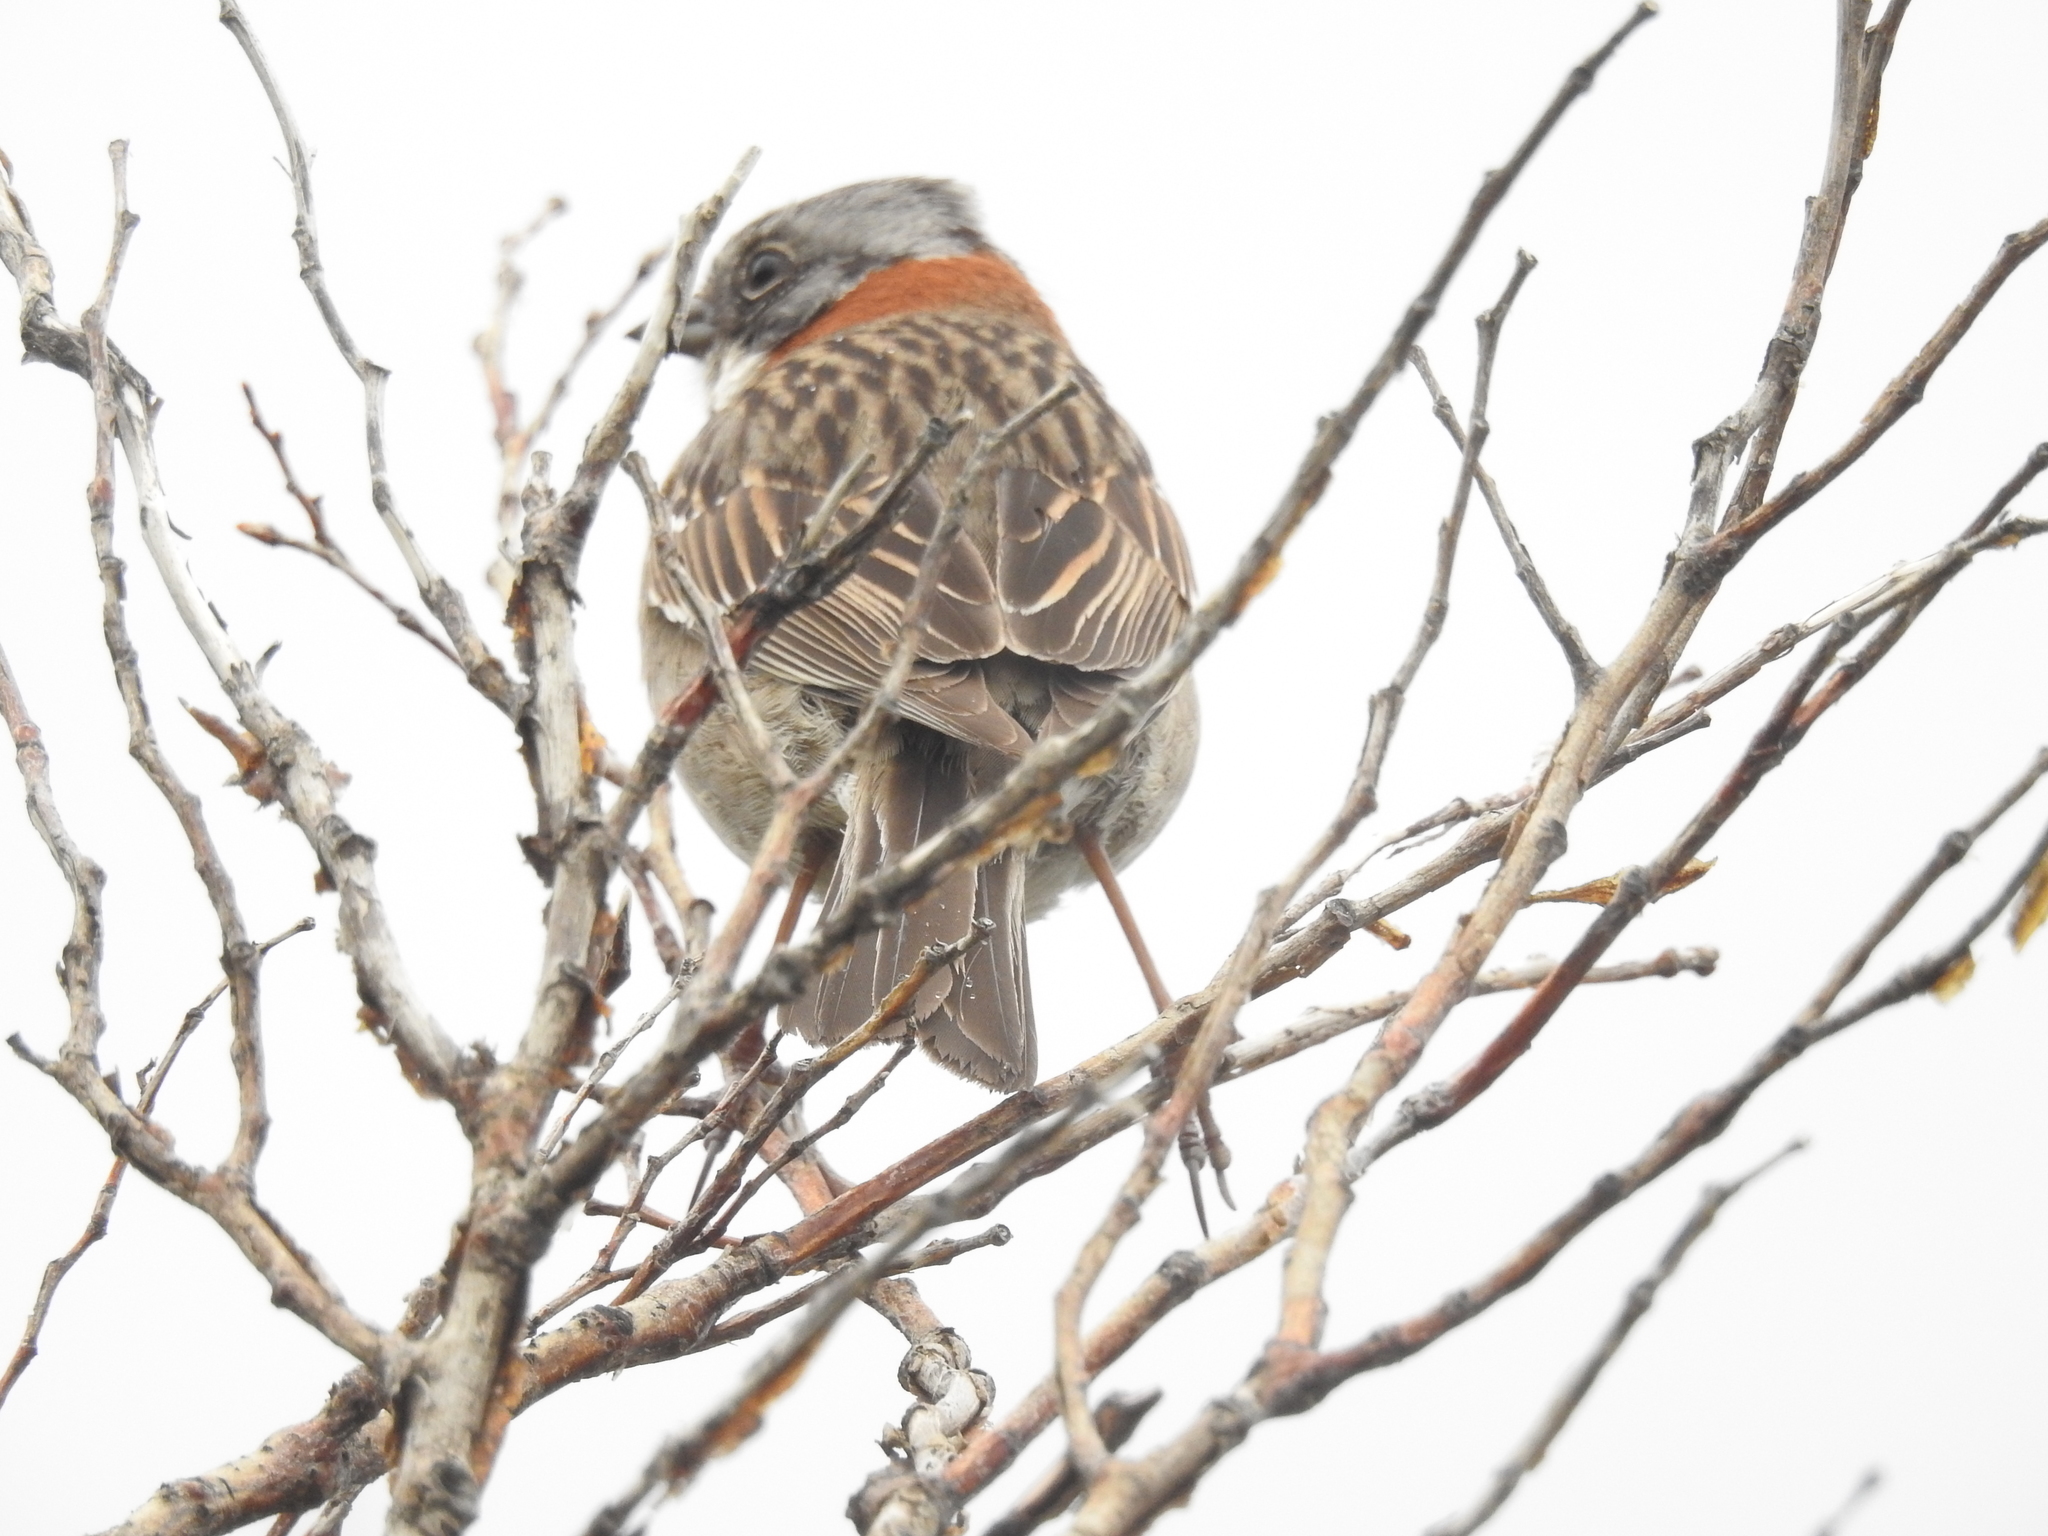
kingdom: Animalia
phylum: Chordata
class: Aves
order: Passeriformes
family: Passerellidae
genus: Zonotrichia
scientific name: Zonotrichia capensis
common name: Rufous-collared sparrow
